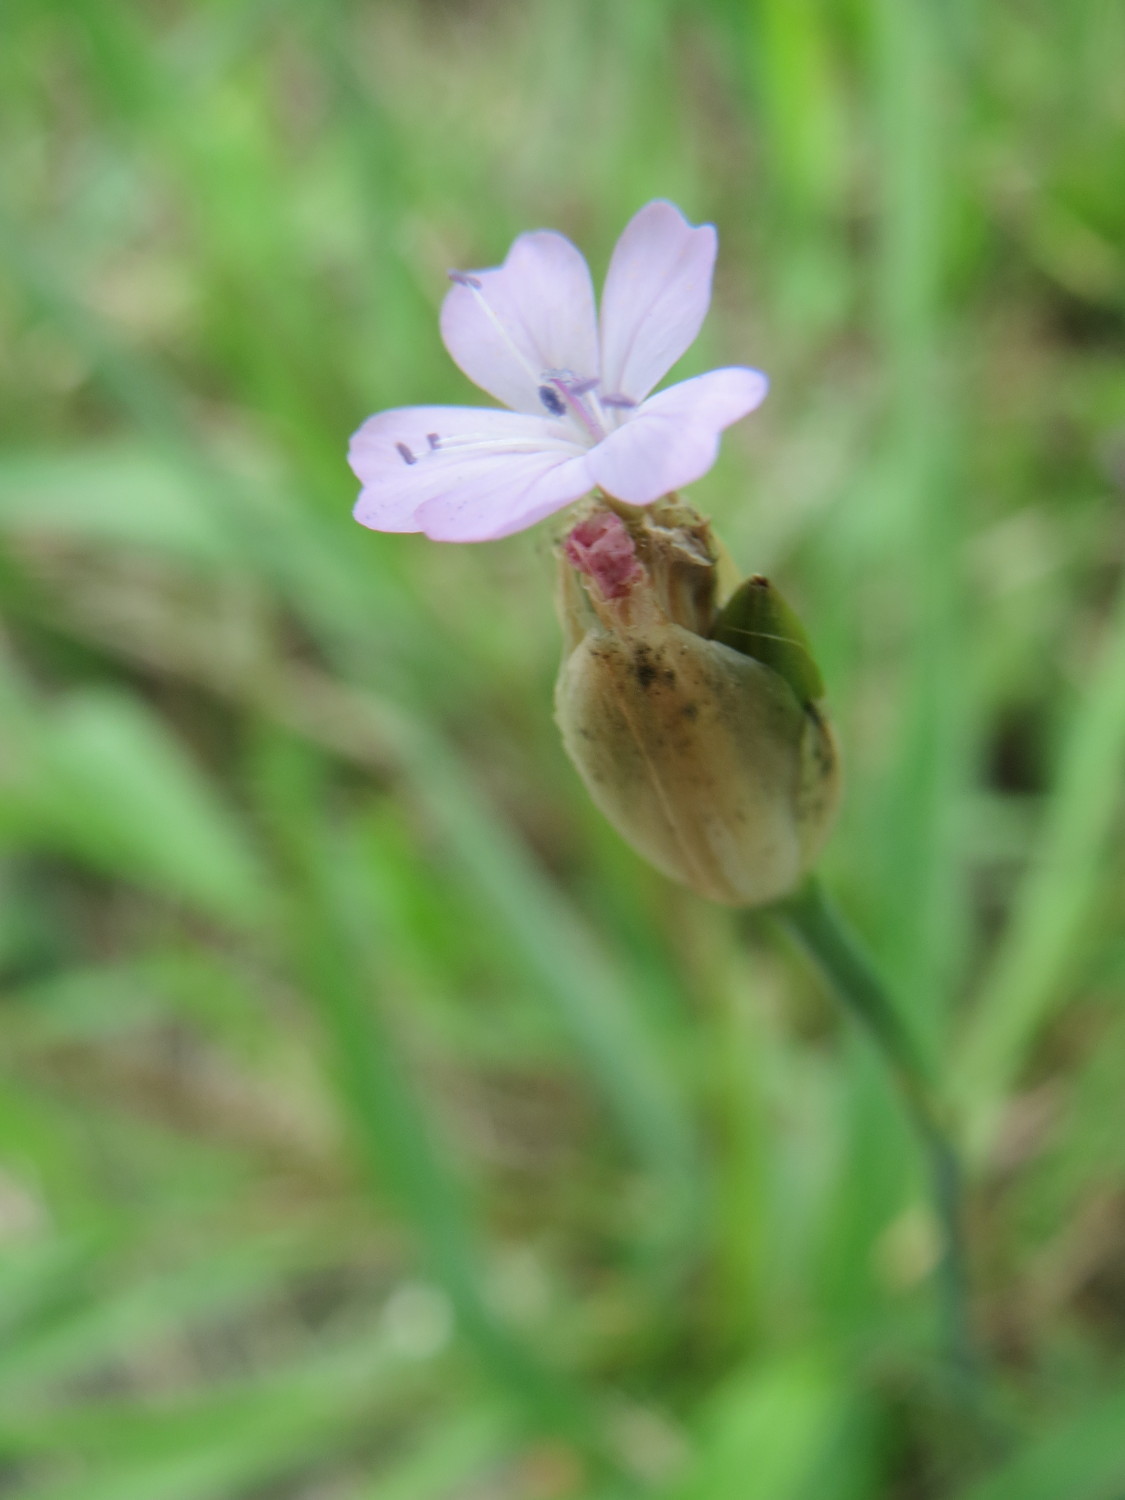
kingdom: Plantae
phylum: Tracheophyta
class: Magnoliopsida
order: Caryophyllales
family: Caryophyllaceae
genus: Petrorhagia
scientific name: Petrorhagia prolifera
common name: Proliferous pink
